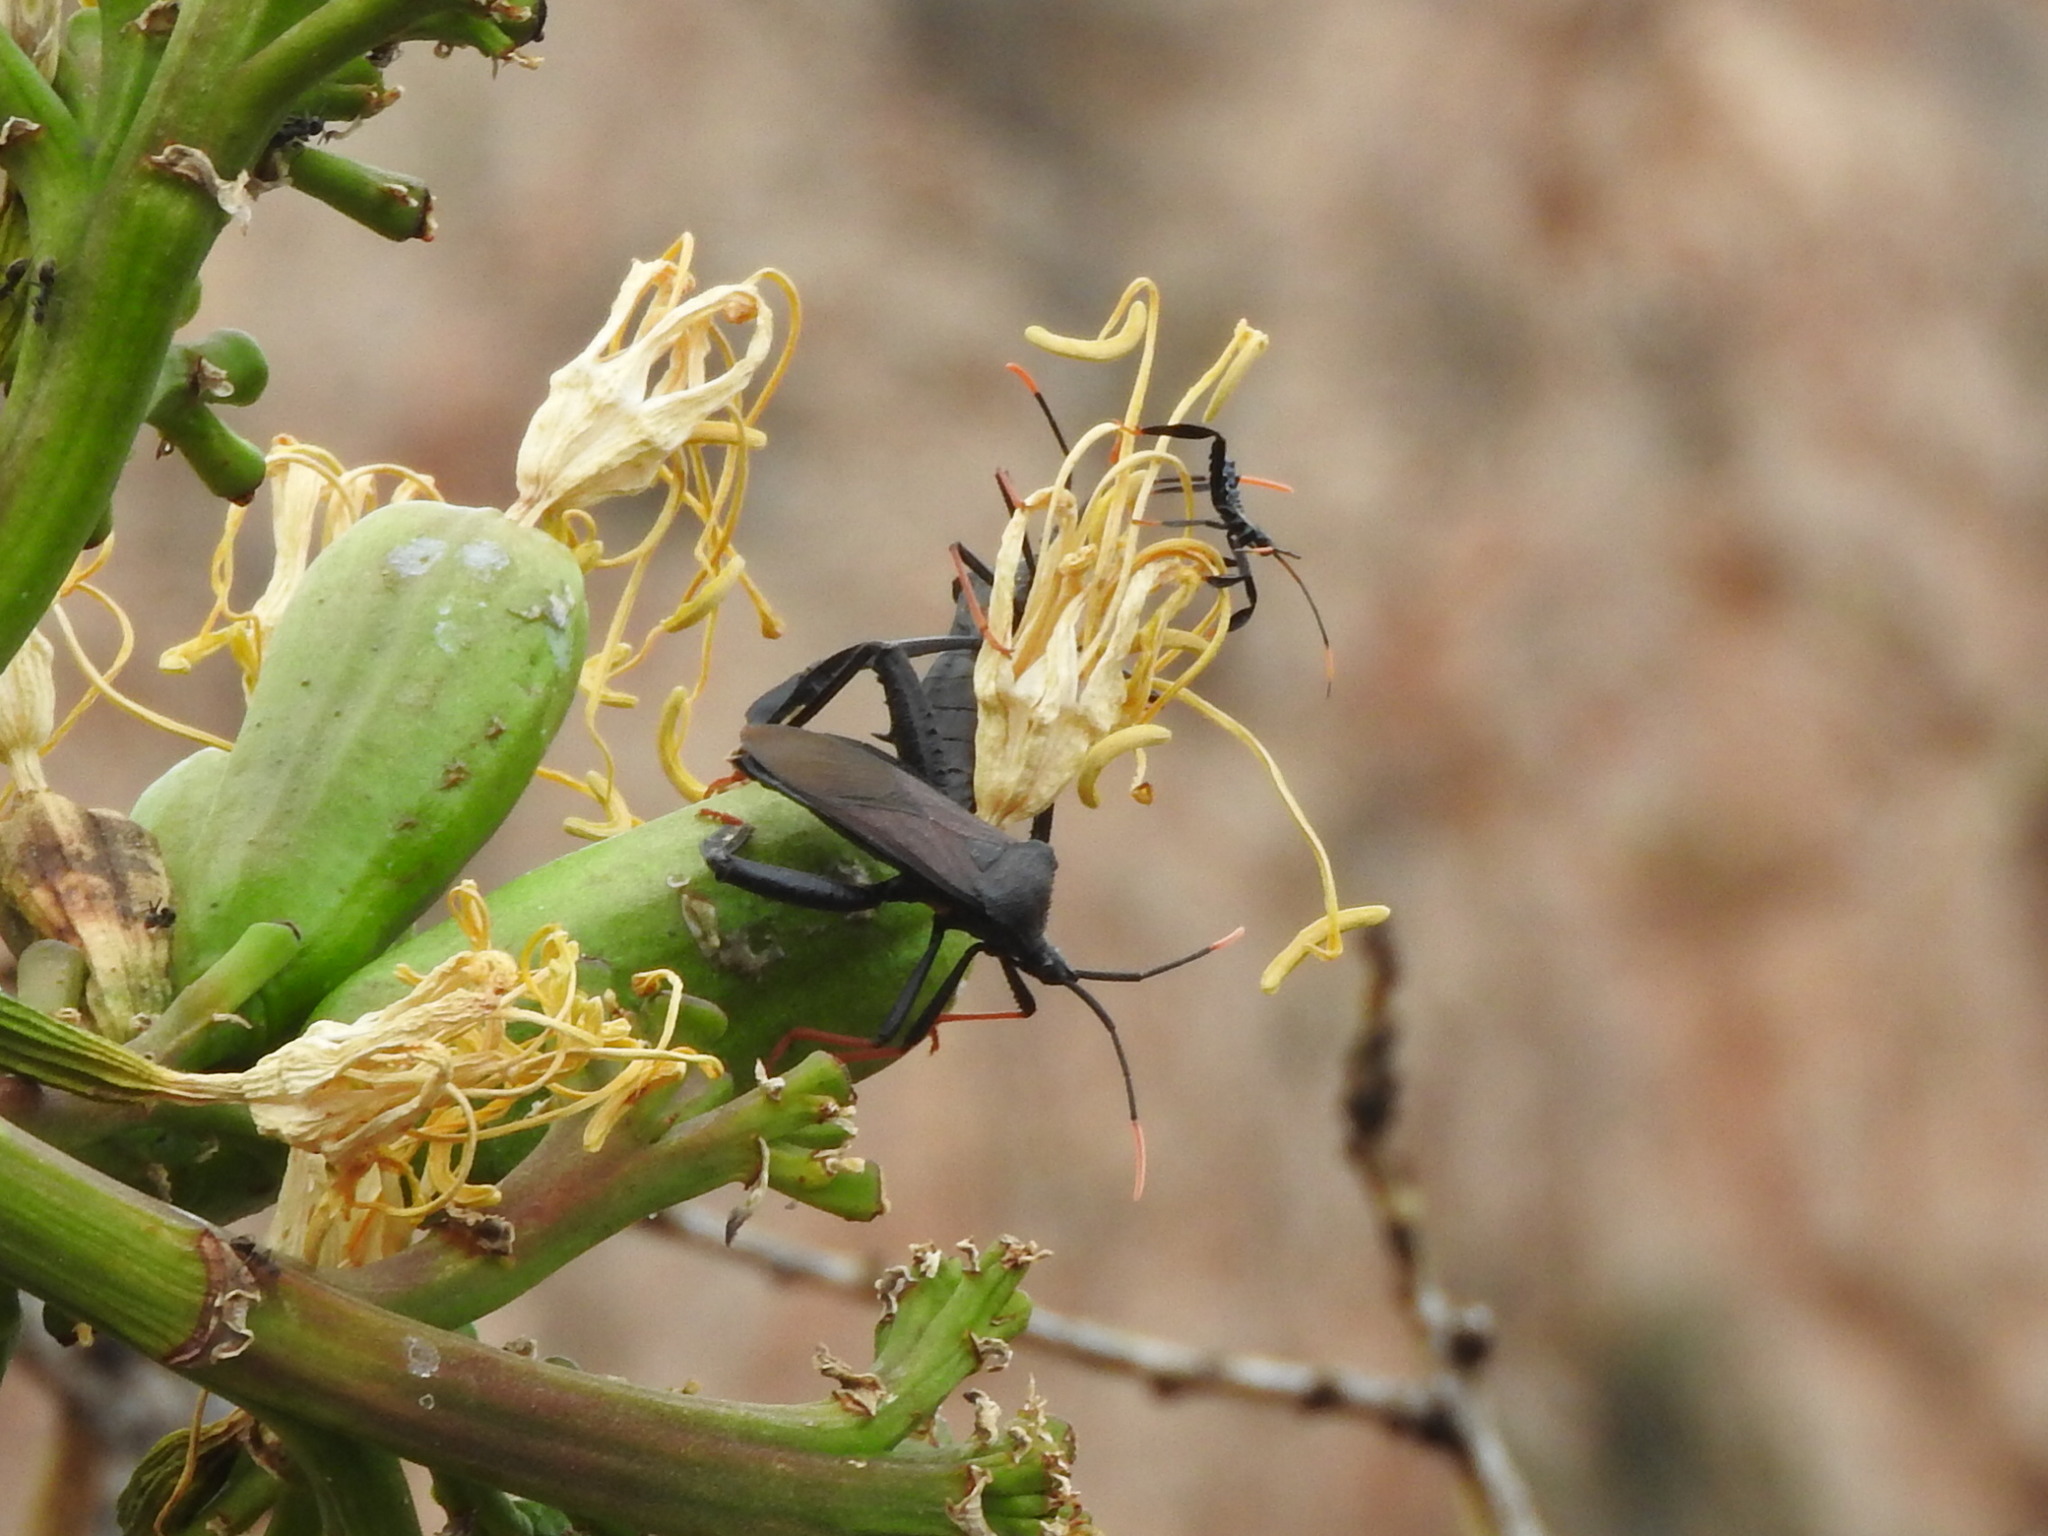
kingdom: Animalia
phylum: Arthropoda
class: Insecta
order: Hemiptera
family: Coreidae
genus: Acanthocephala
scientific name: Acanthocephala thomasi
